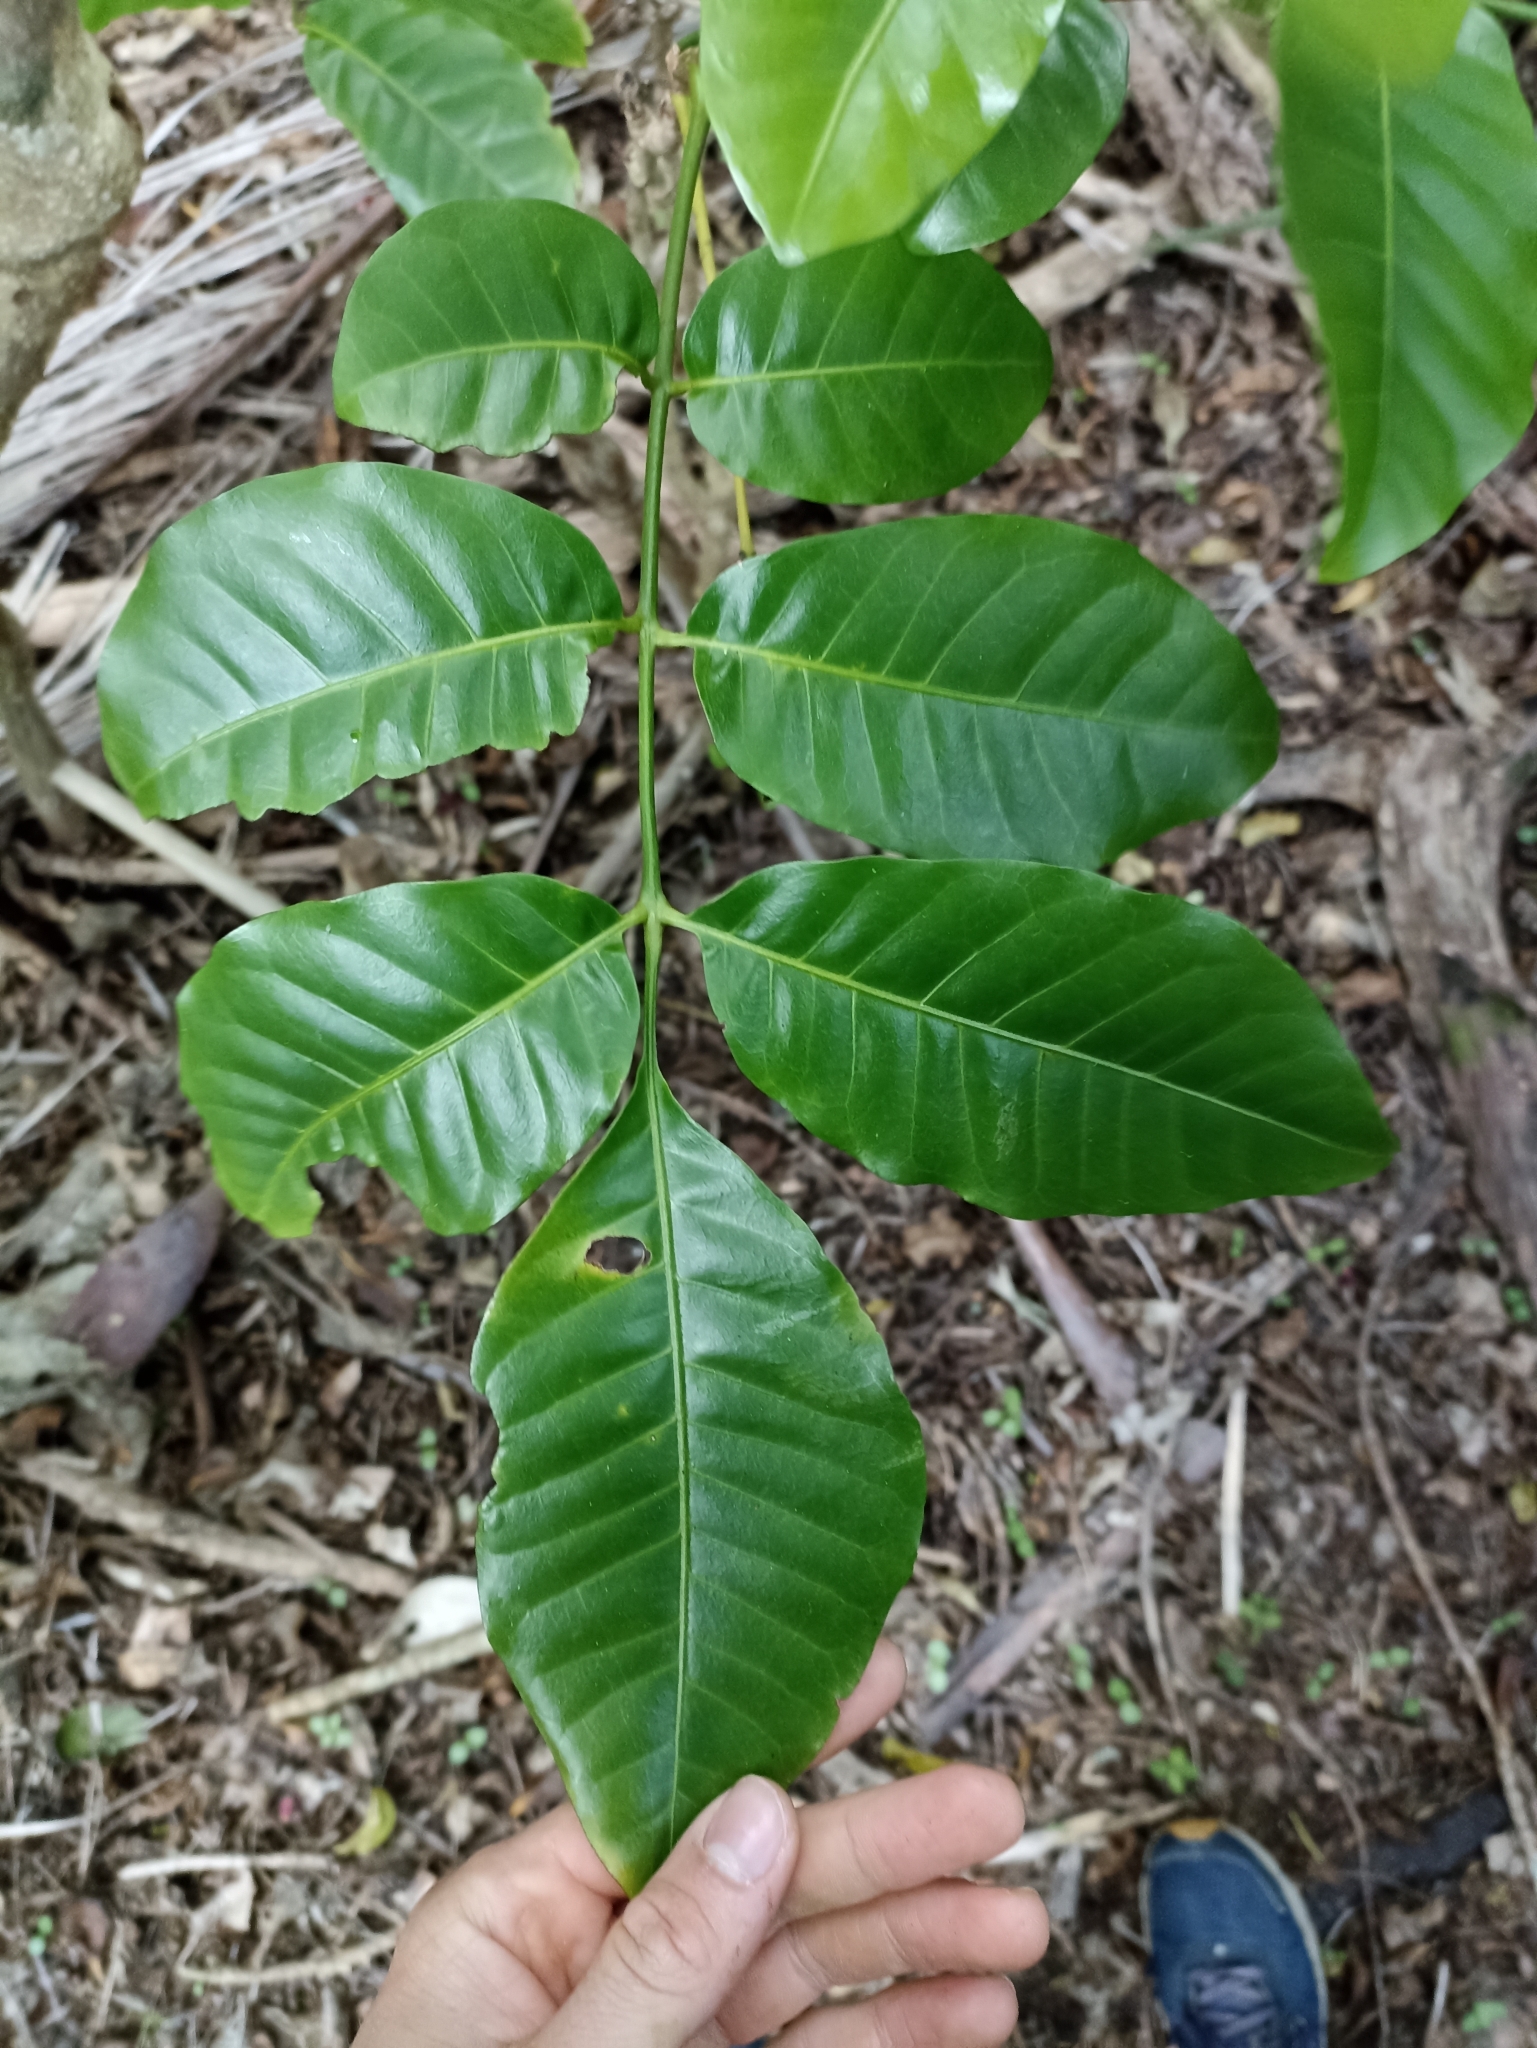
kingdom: Plantae
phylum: Tracheophyta
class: Magnoliopsida
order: Sapindales
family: Meliaceae
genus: Didymocheton
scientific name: Didymocheton spectabilis
